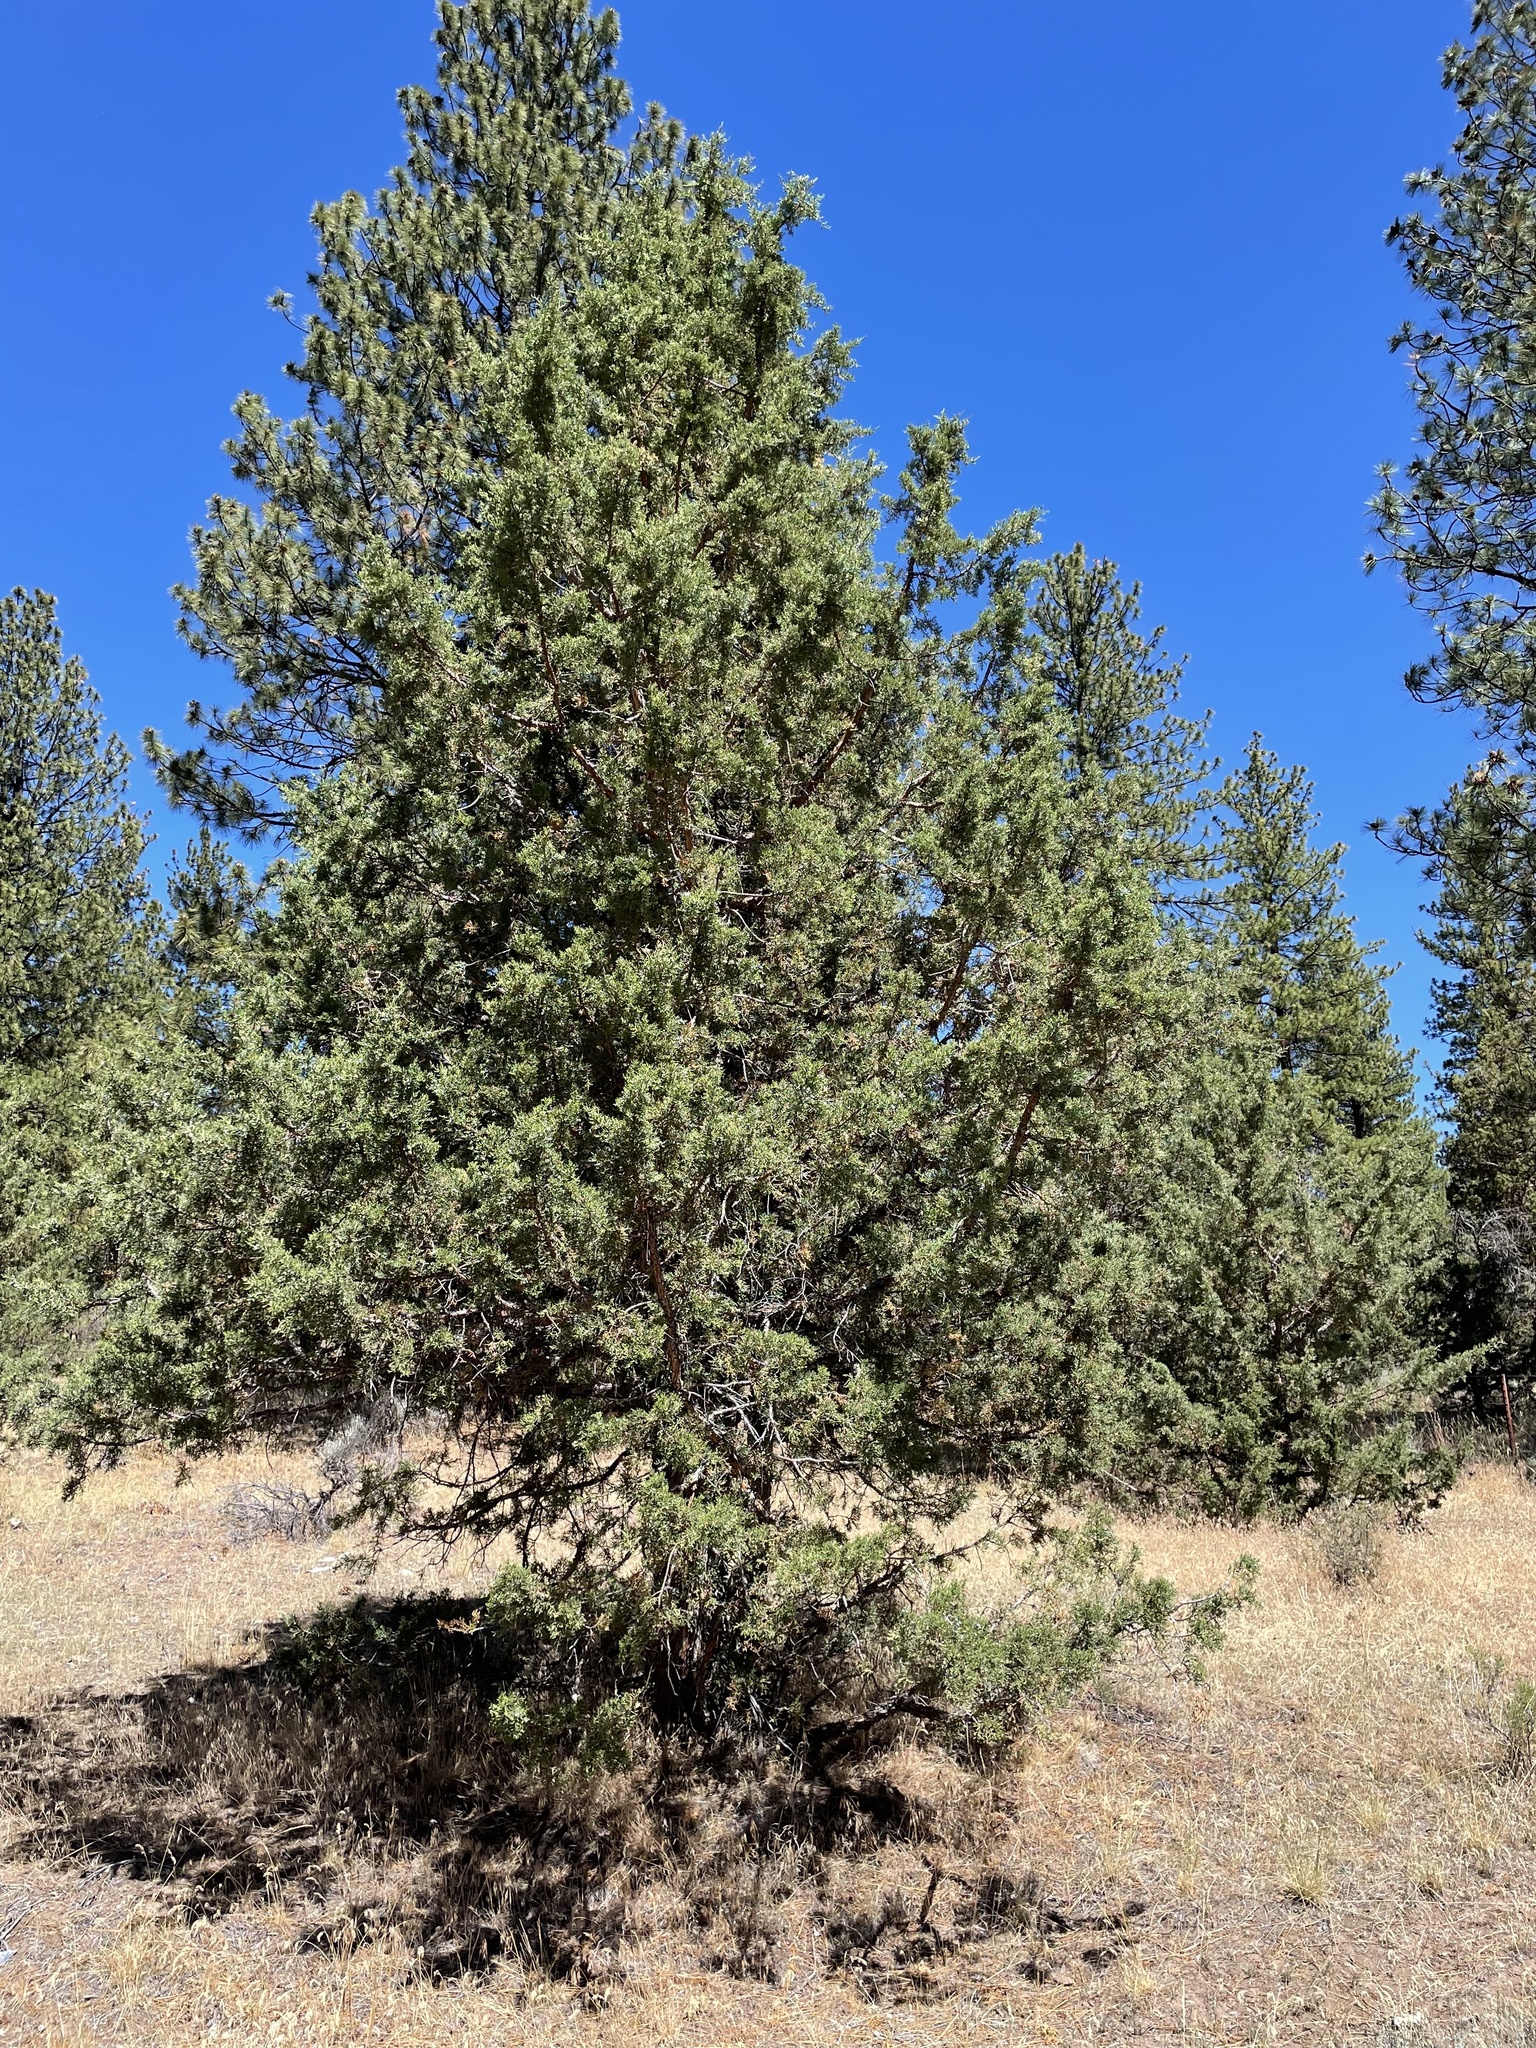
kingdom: Plantae
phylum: Tracheophyta
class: Pinopsida
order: Pinales
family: Cupressaceae
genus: Juniperus
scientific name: Juniperus occidentalis
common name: Western juniper
